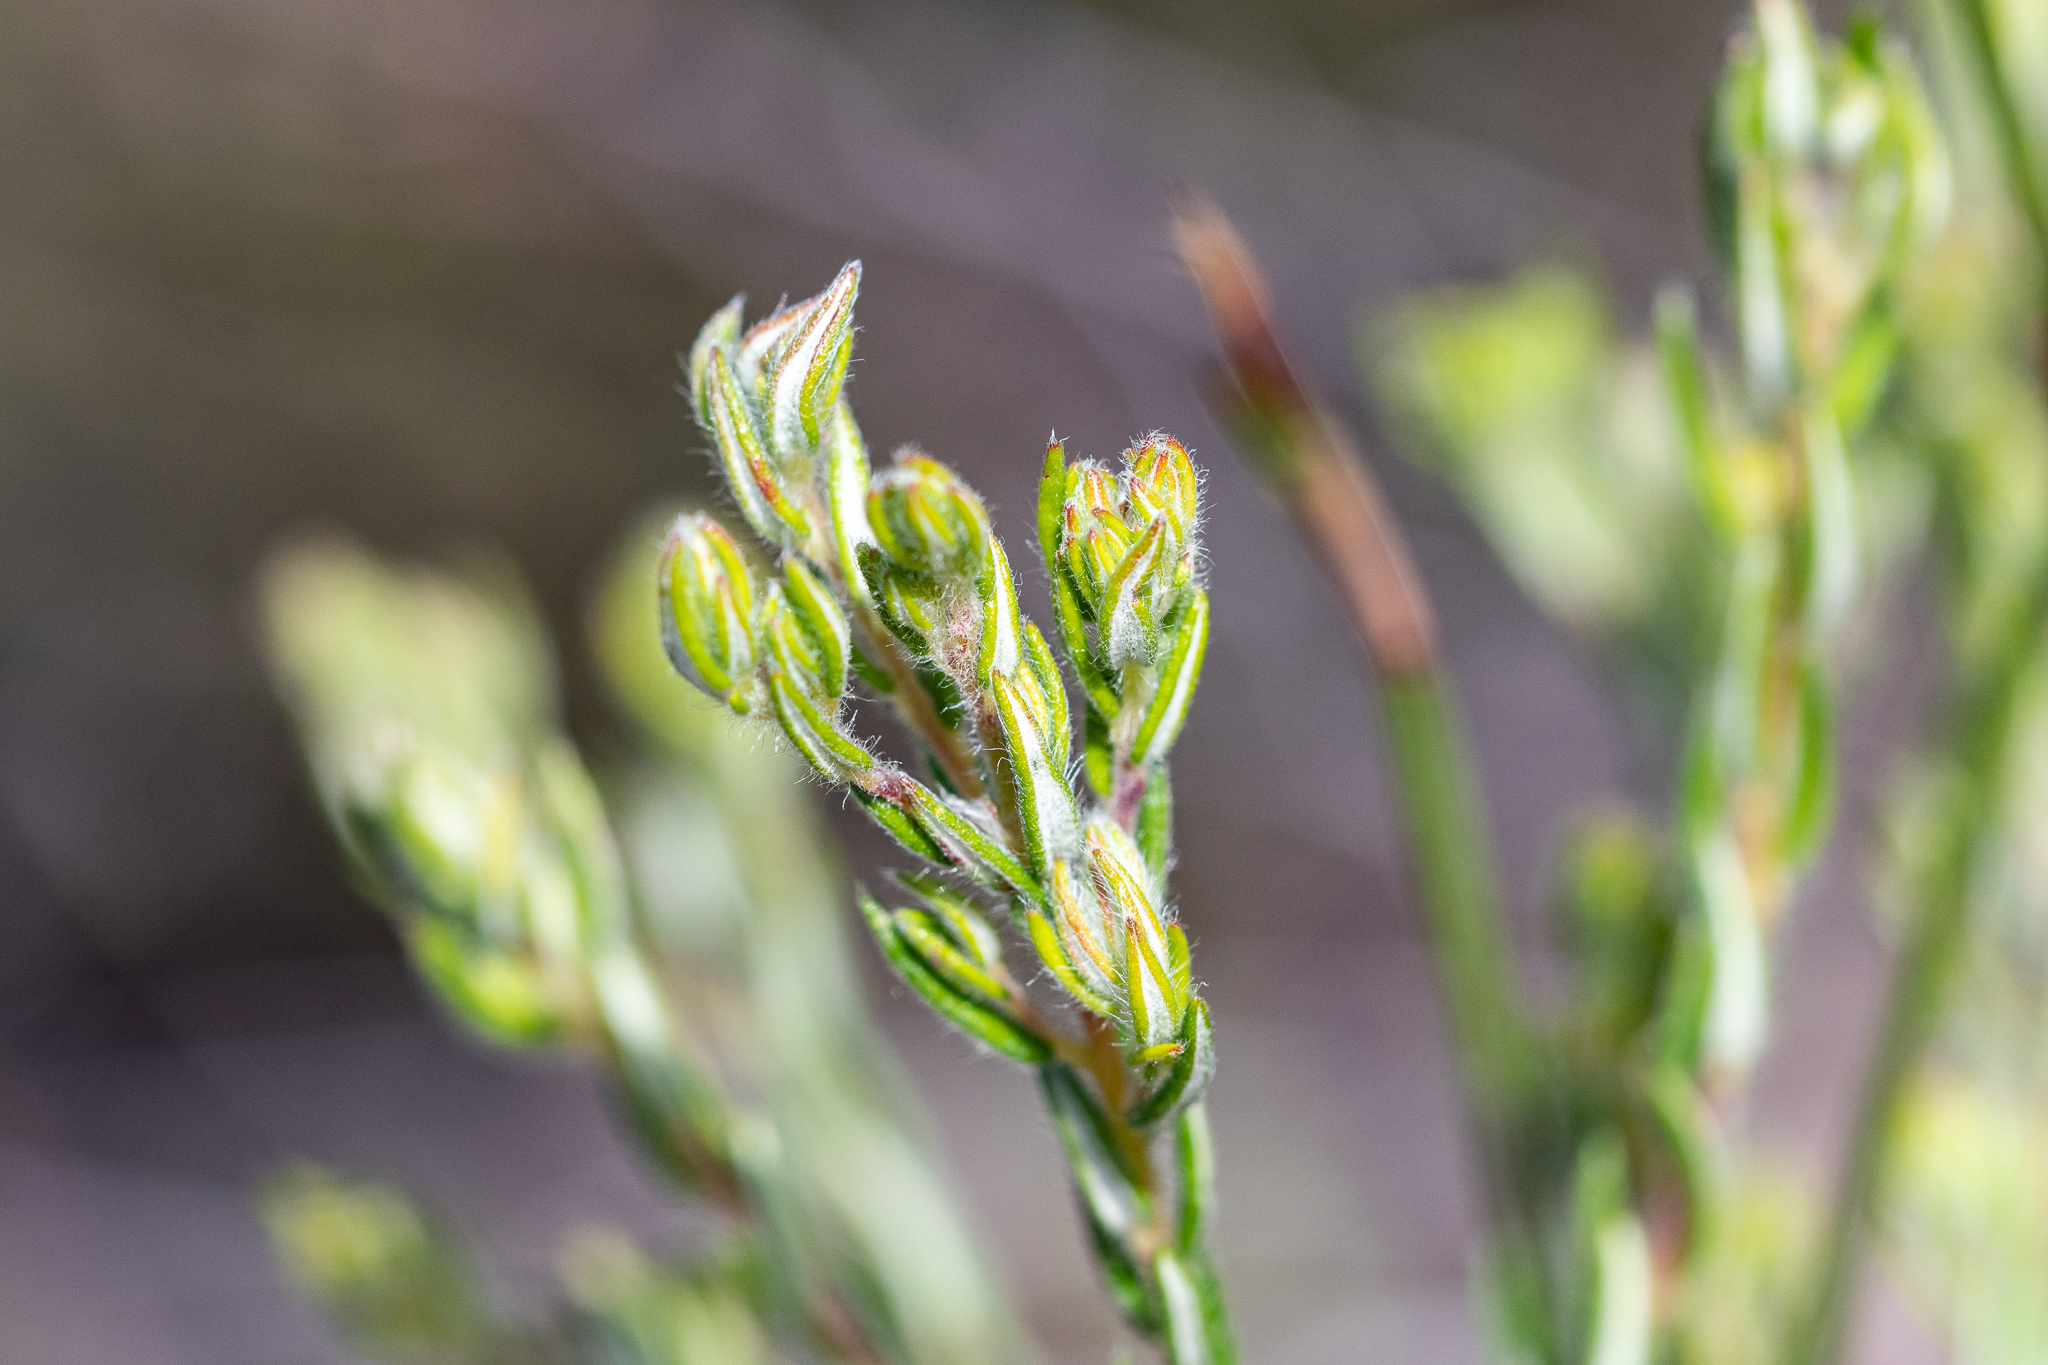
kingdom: Plantae
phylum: Tracheophyta
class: Magnoliopsida
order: Rosales
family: Rhamnaceae
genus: Phylica
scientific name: Phylica virgata
